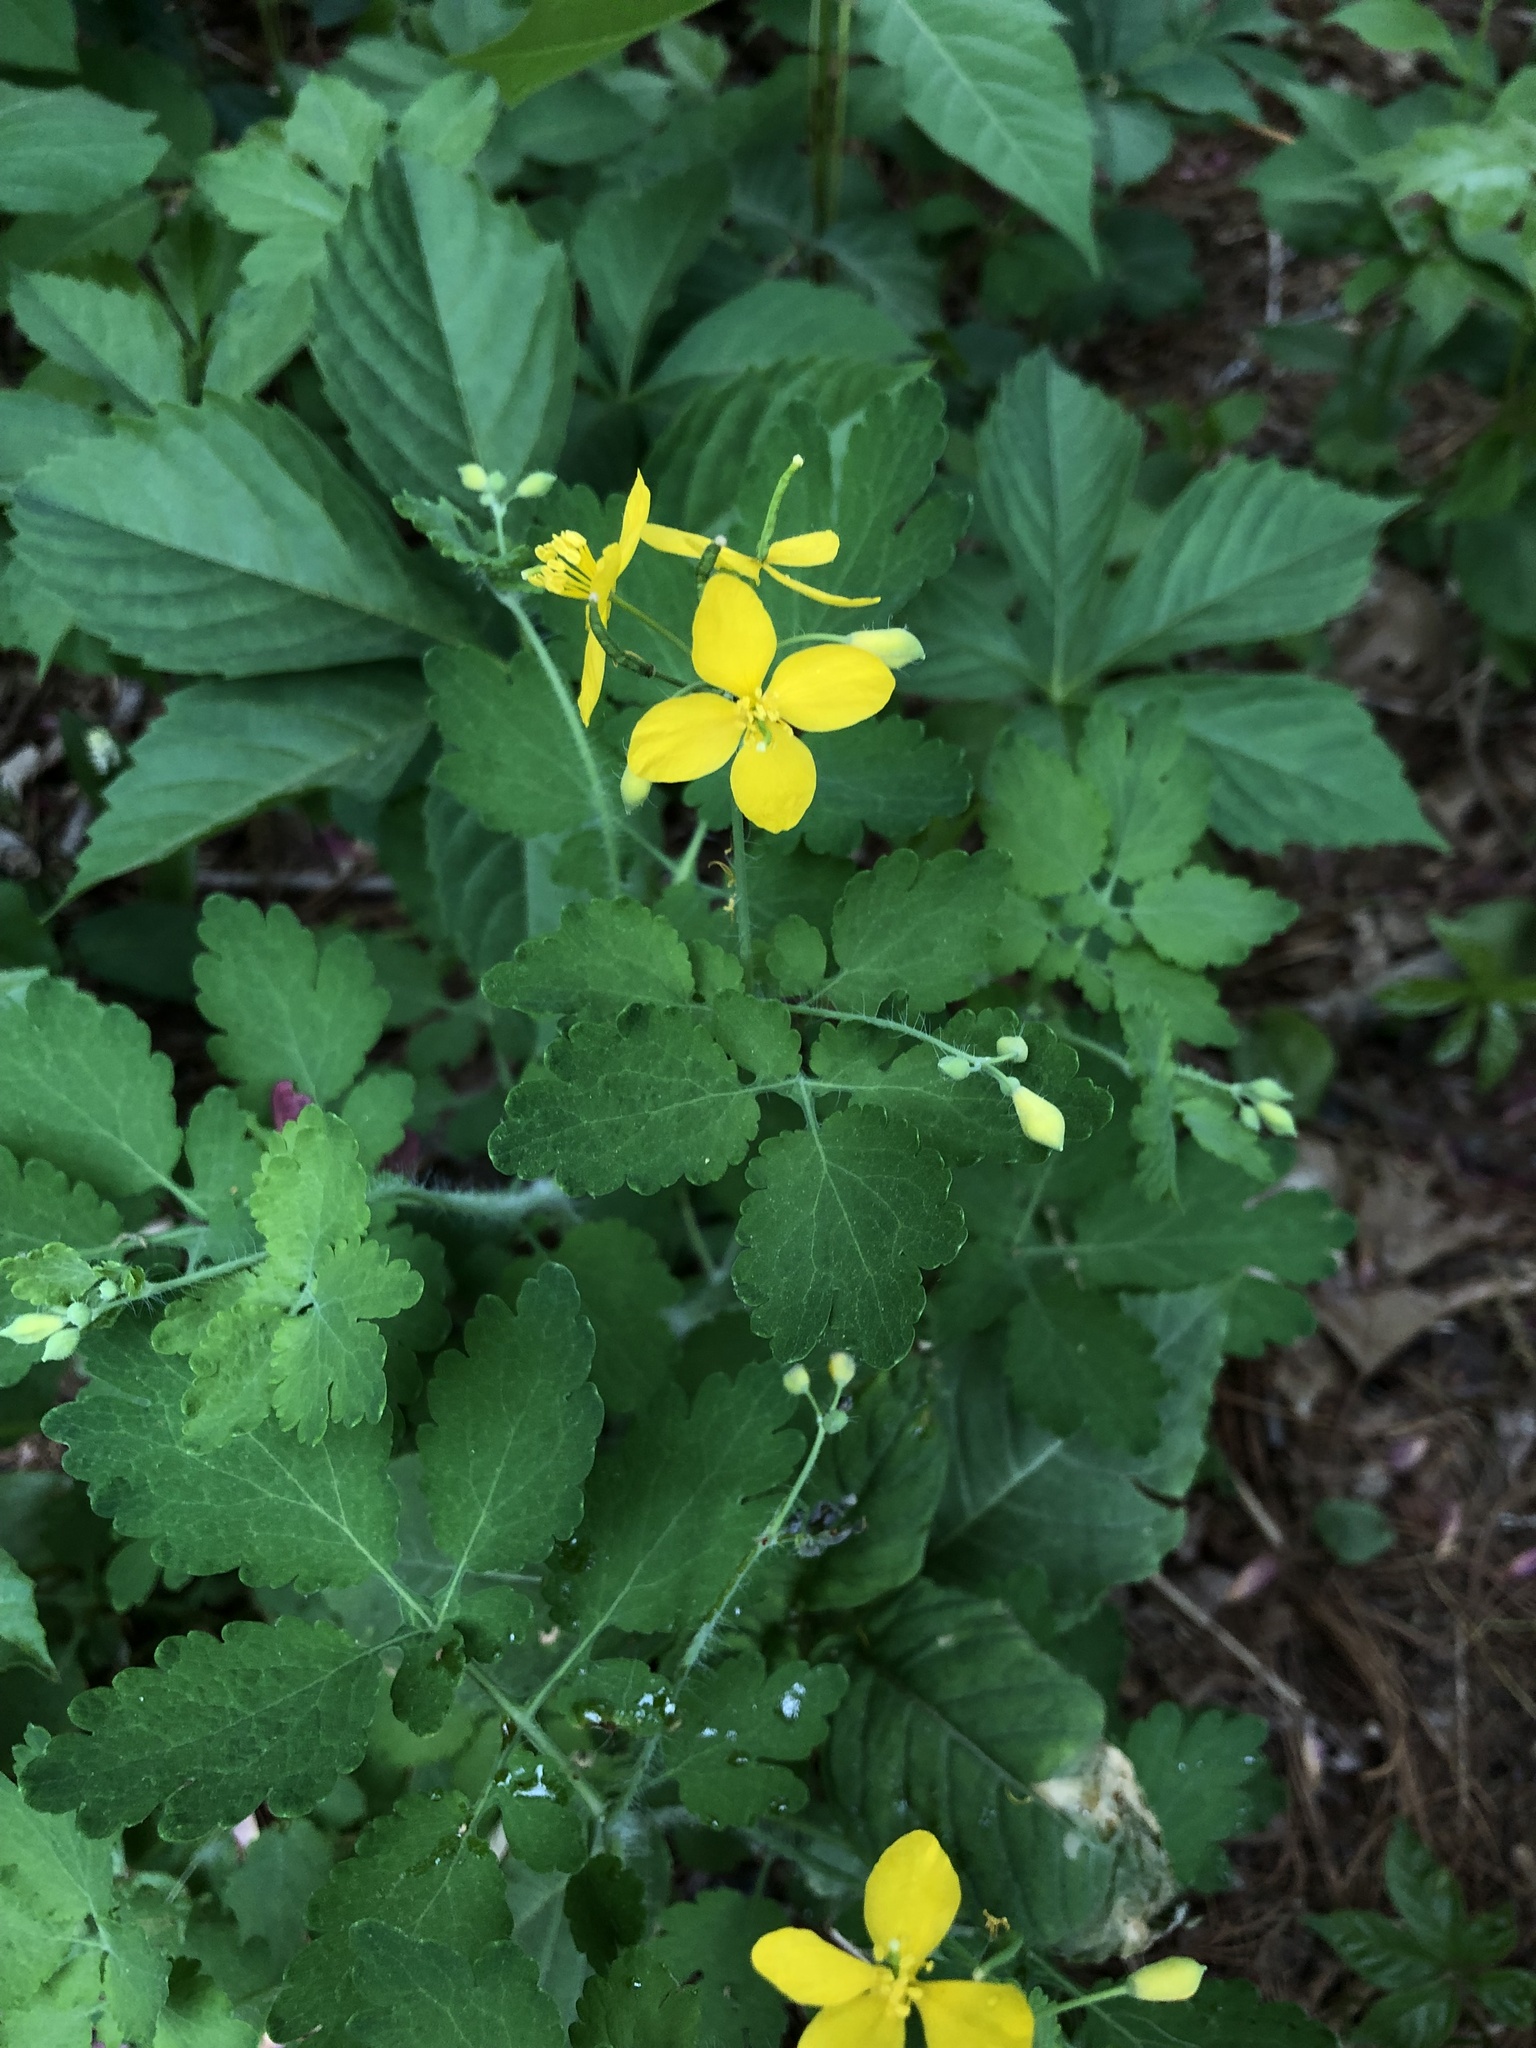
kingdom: Plantae
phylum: Tracheophyta
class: Magnoliopsida
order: Ranunculales
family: Papaveraceae
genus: Chelidonium
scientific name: Chelidonium majus
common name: Greater celandine
